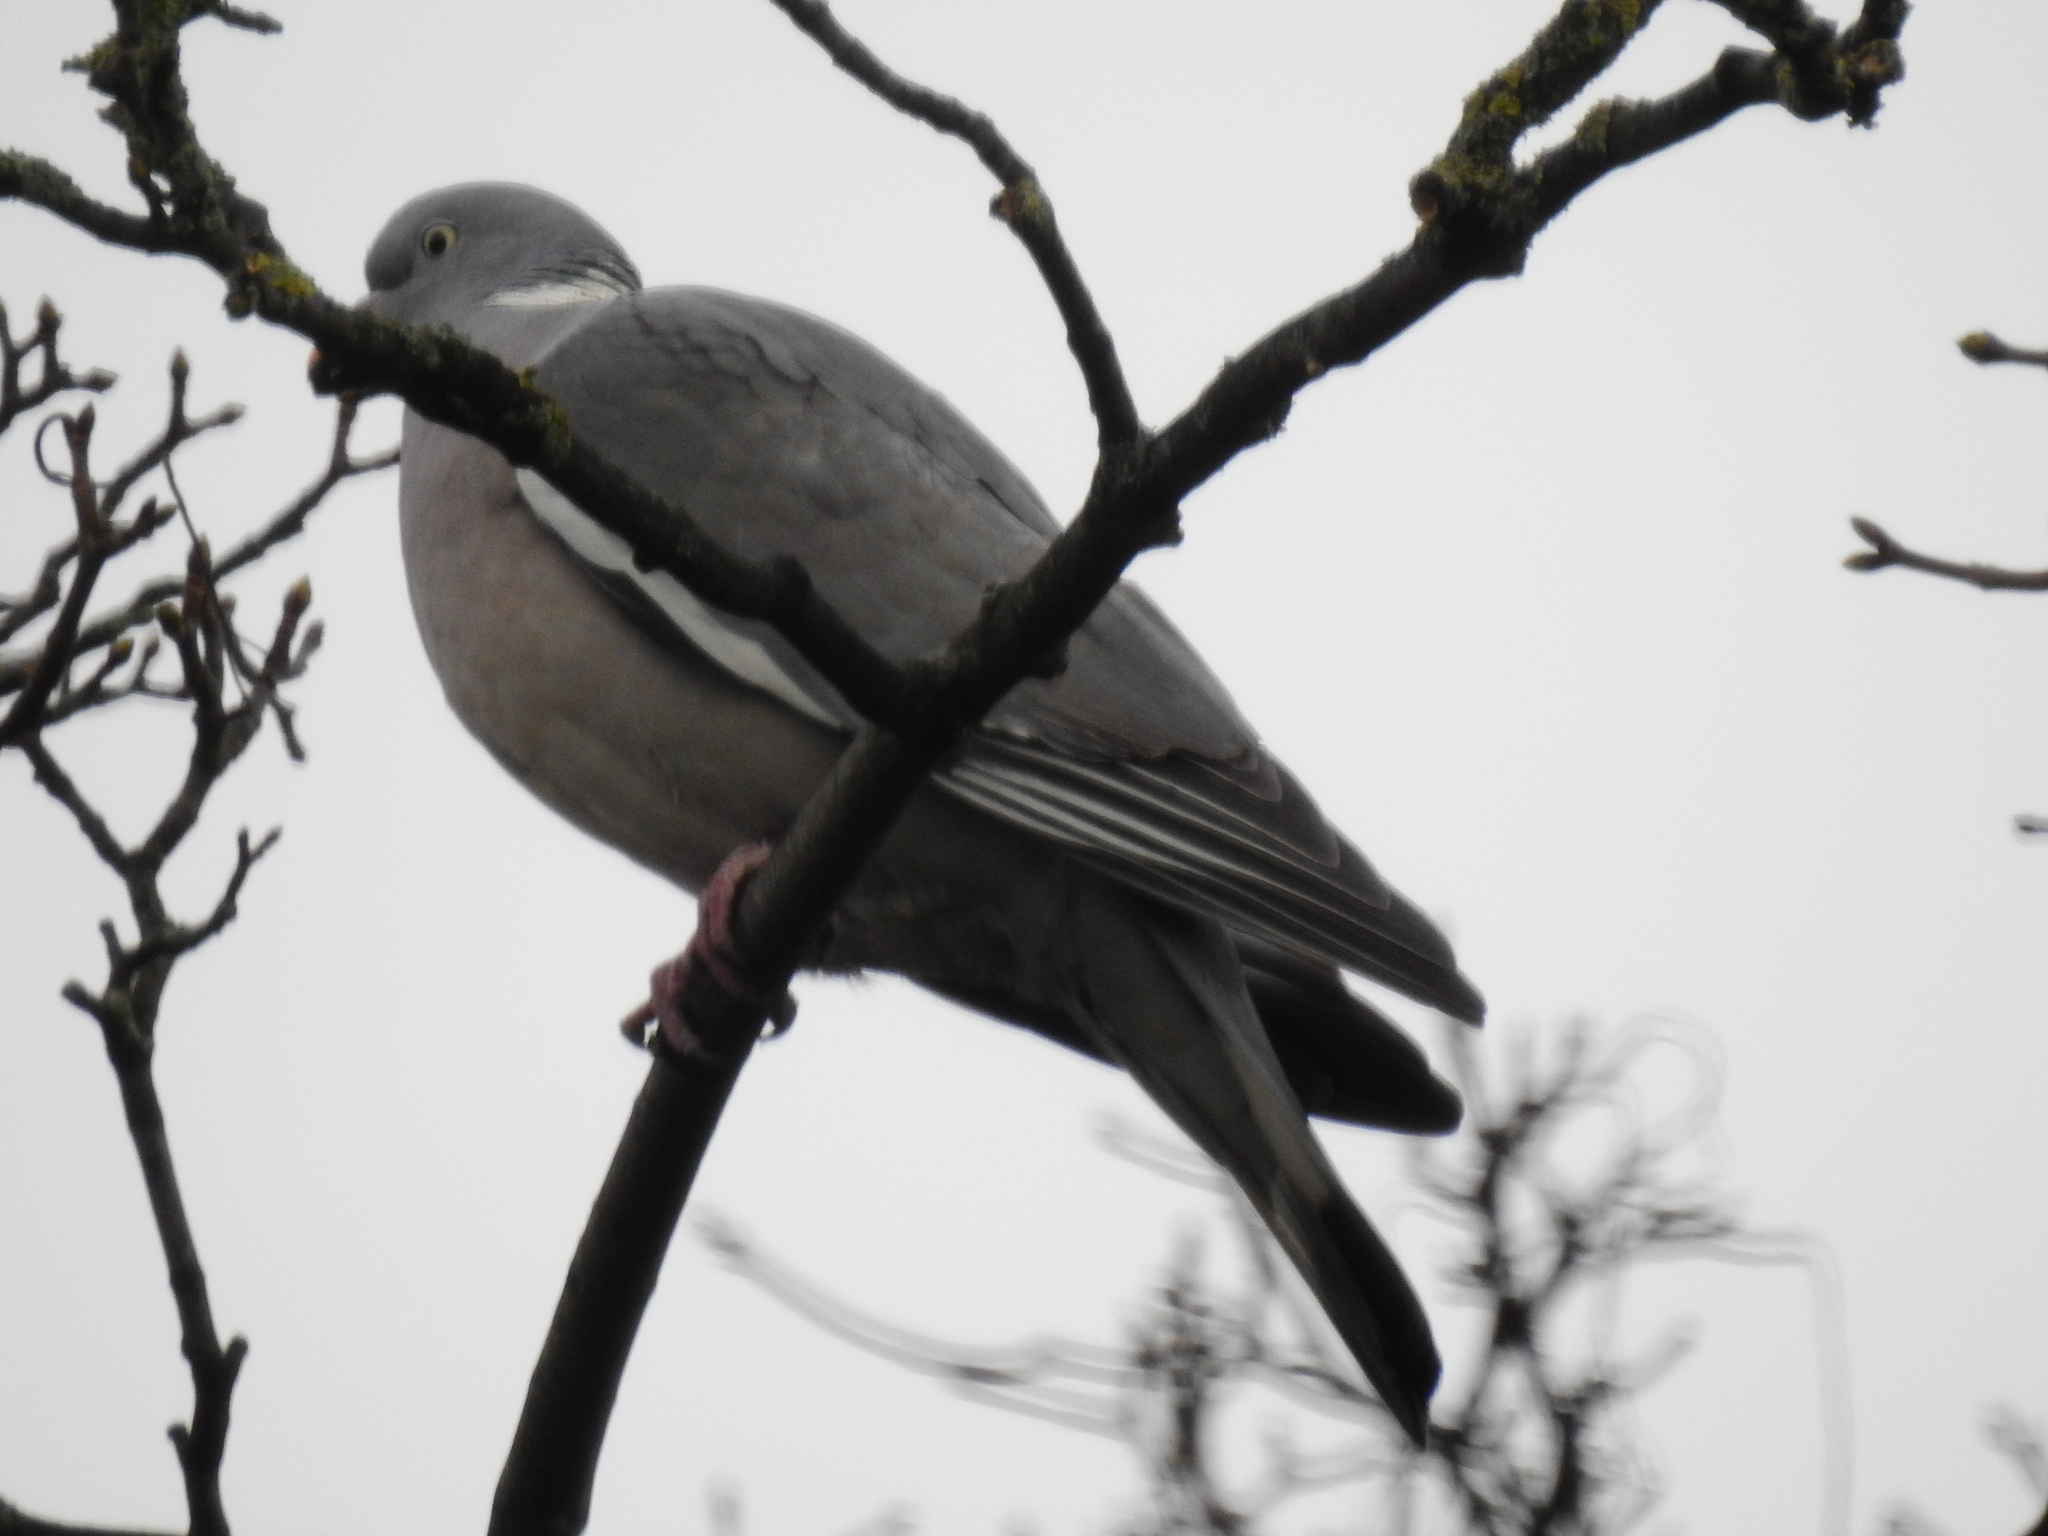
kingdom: Animalia
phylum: Chordata
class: Aves
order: Columbiformes
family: Columbidae
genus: Columba
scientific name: Columba palumbus
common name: Common wood pigeon
